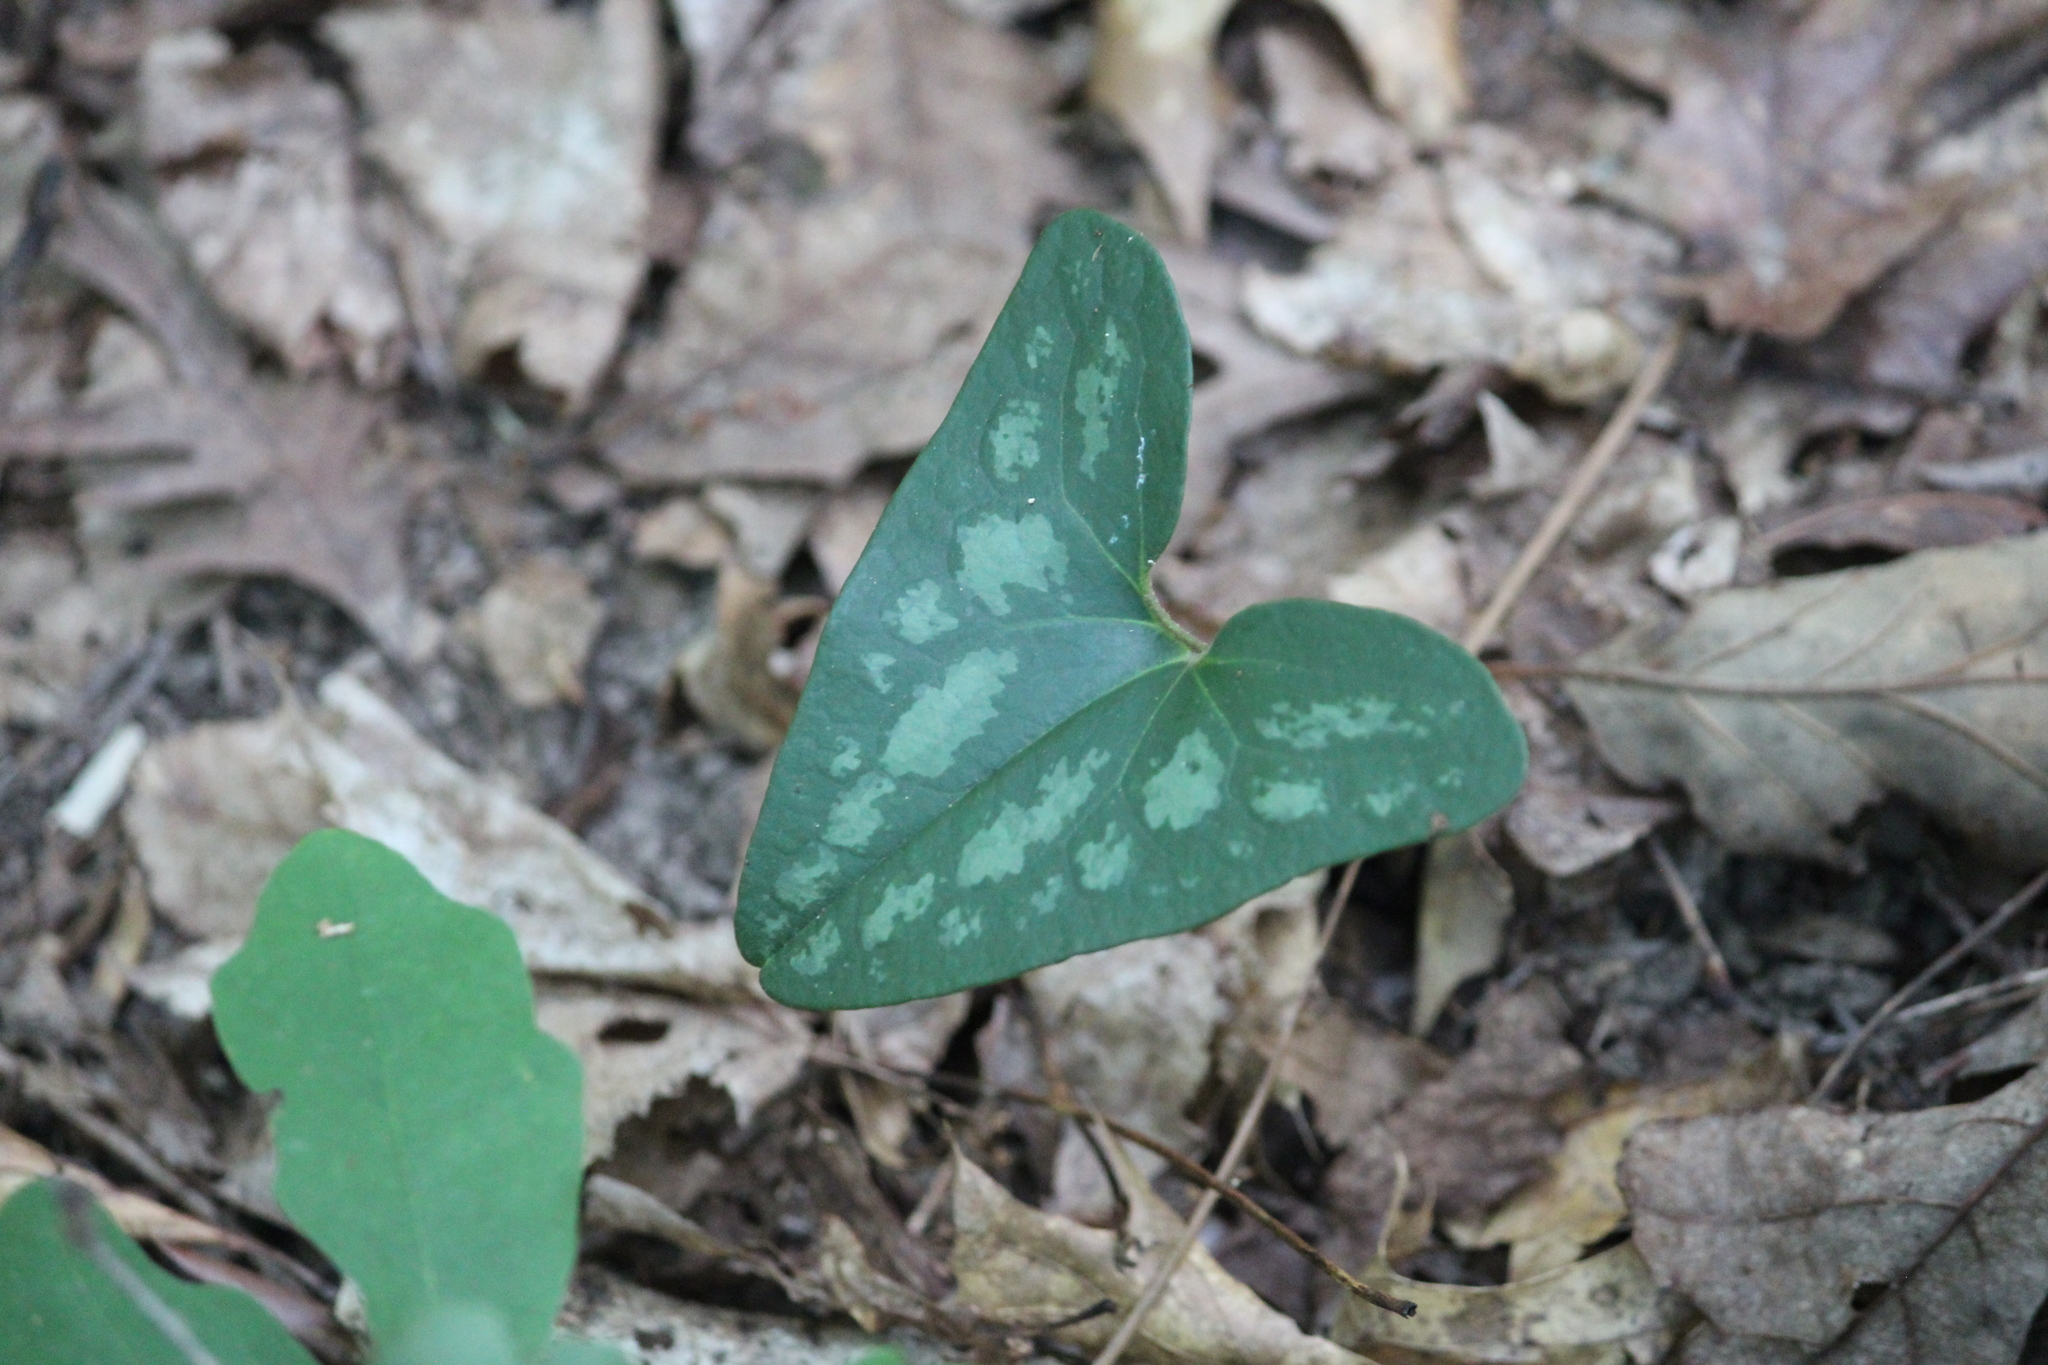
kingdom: Plantae
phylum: Tracheophyta
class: Magnoliopsida
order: Piperales
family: Aristolochiaceae
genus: Hexastylis
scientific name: Hexastylis arifolia
